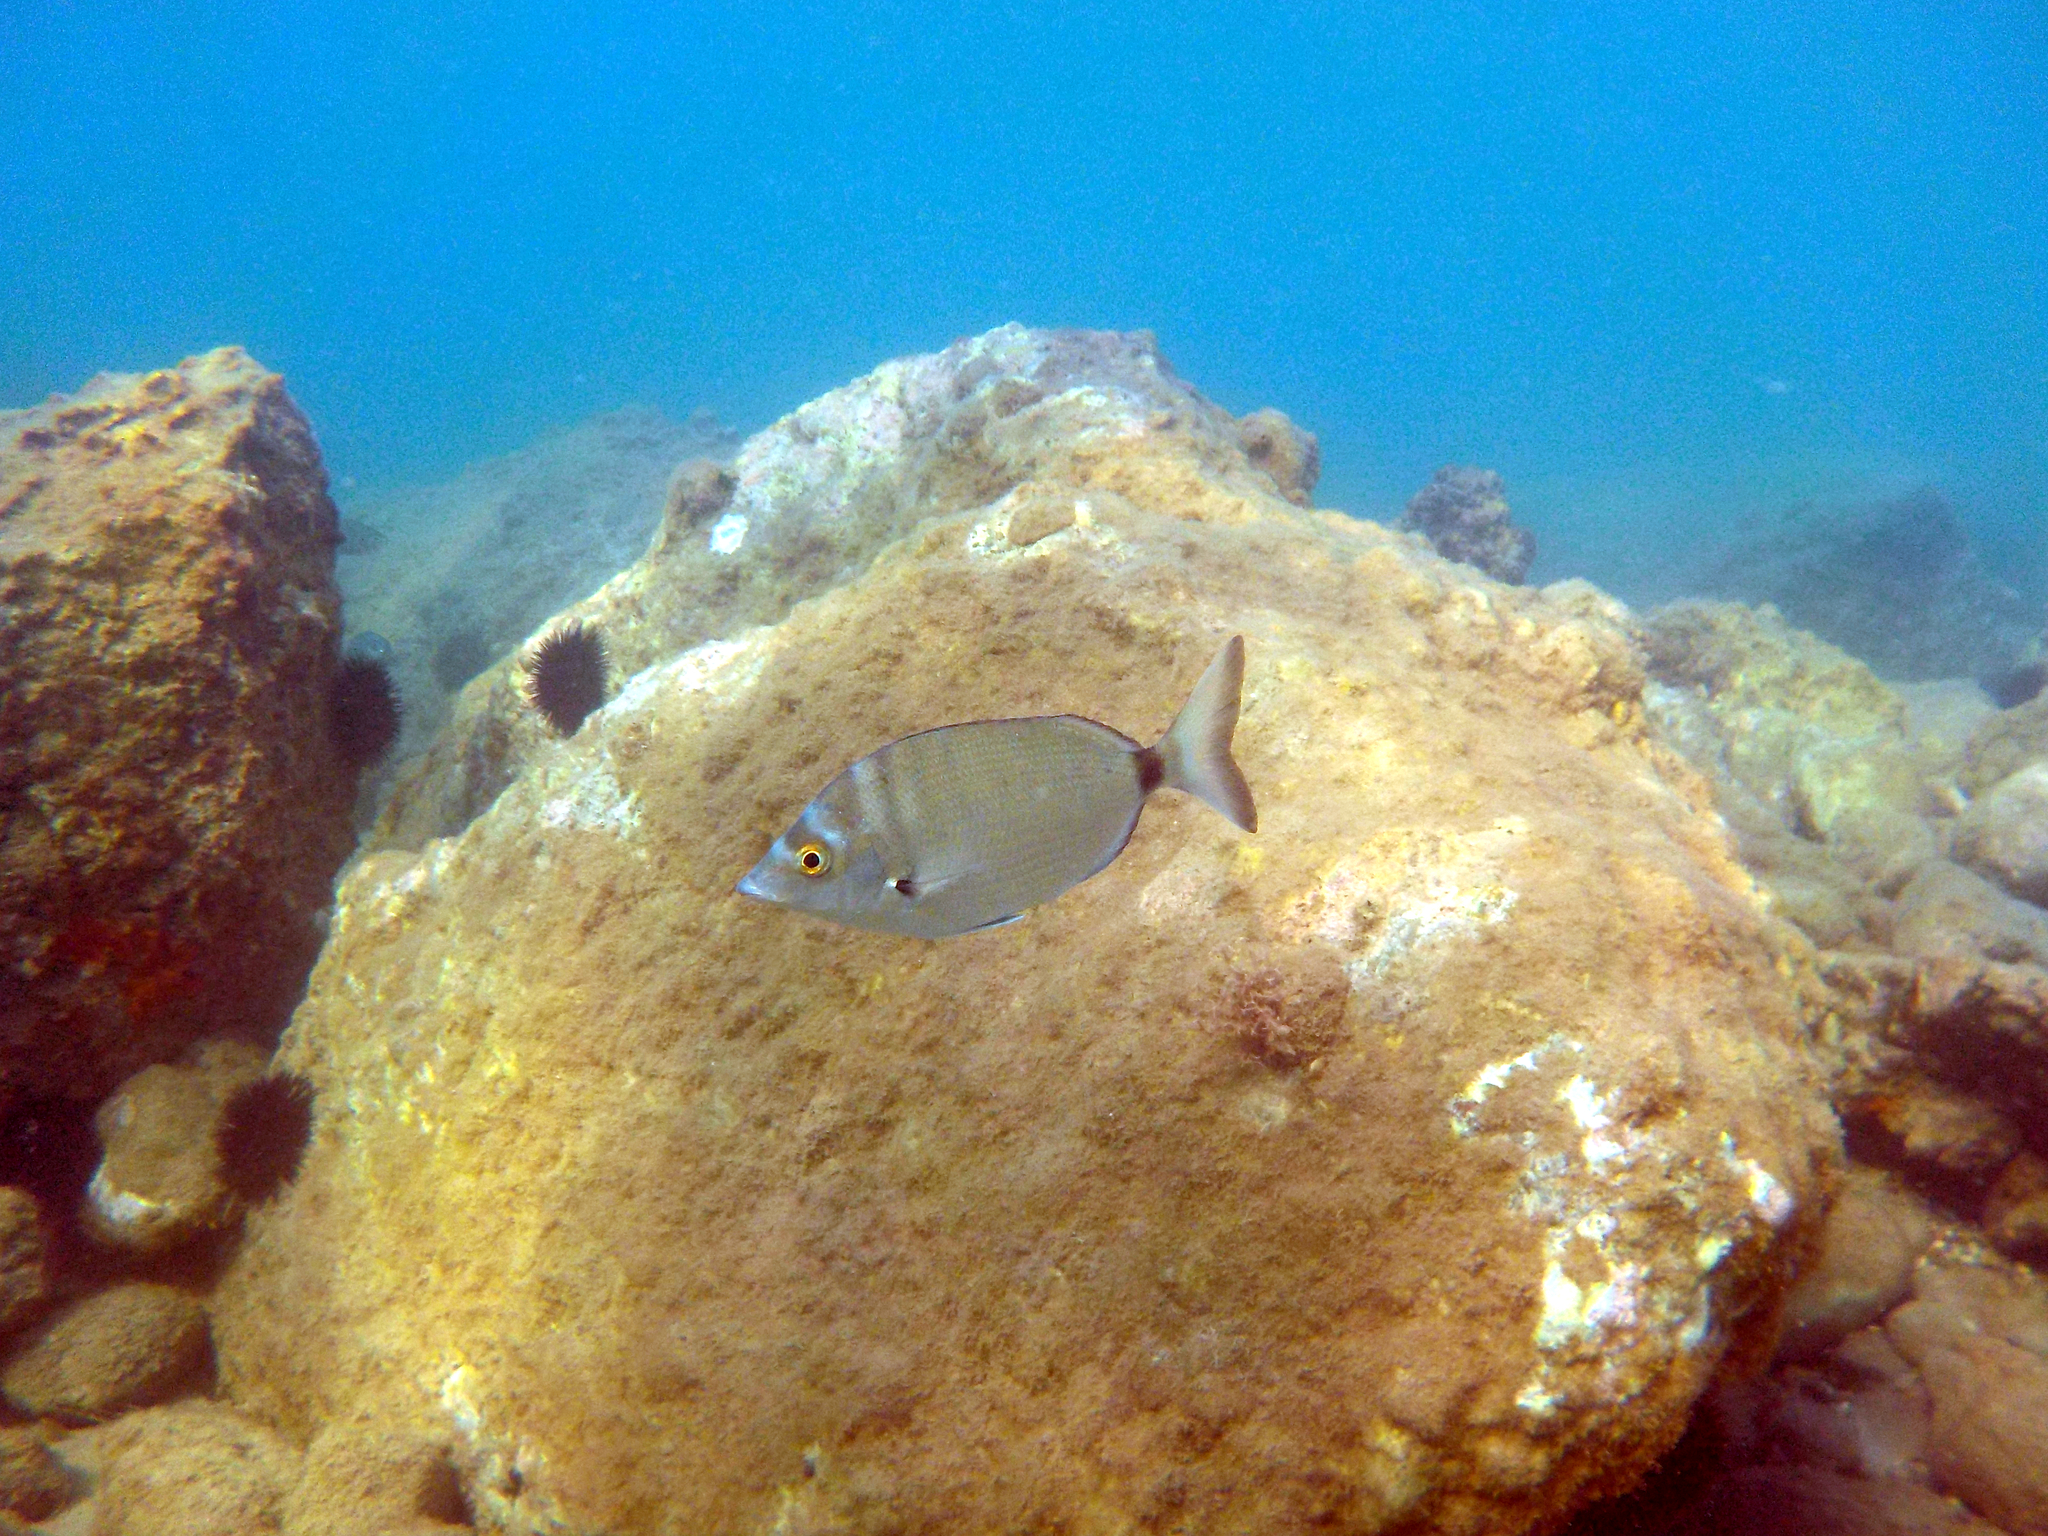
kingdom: Animalia
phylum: Chordata
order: Perciformes
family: Sparidae
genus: Diplodus
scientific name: Diplodus puntazzo
